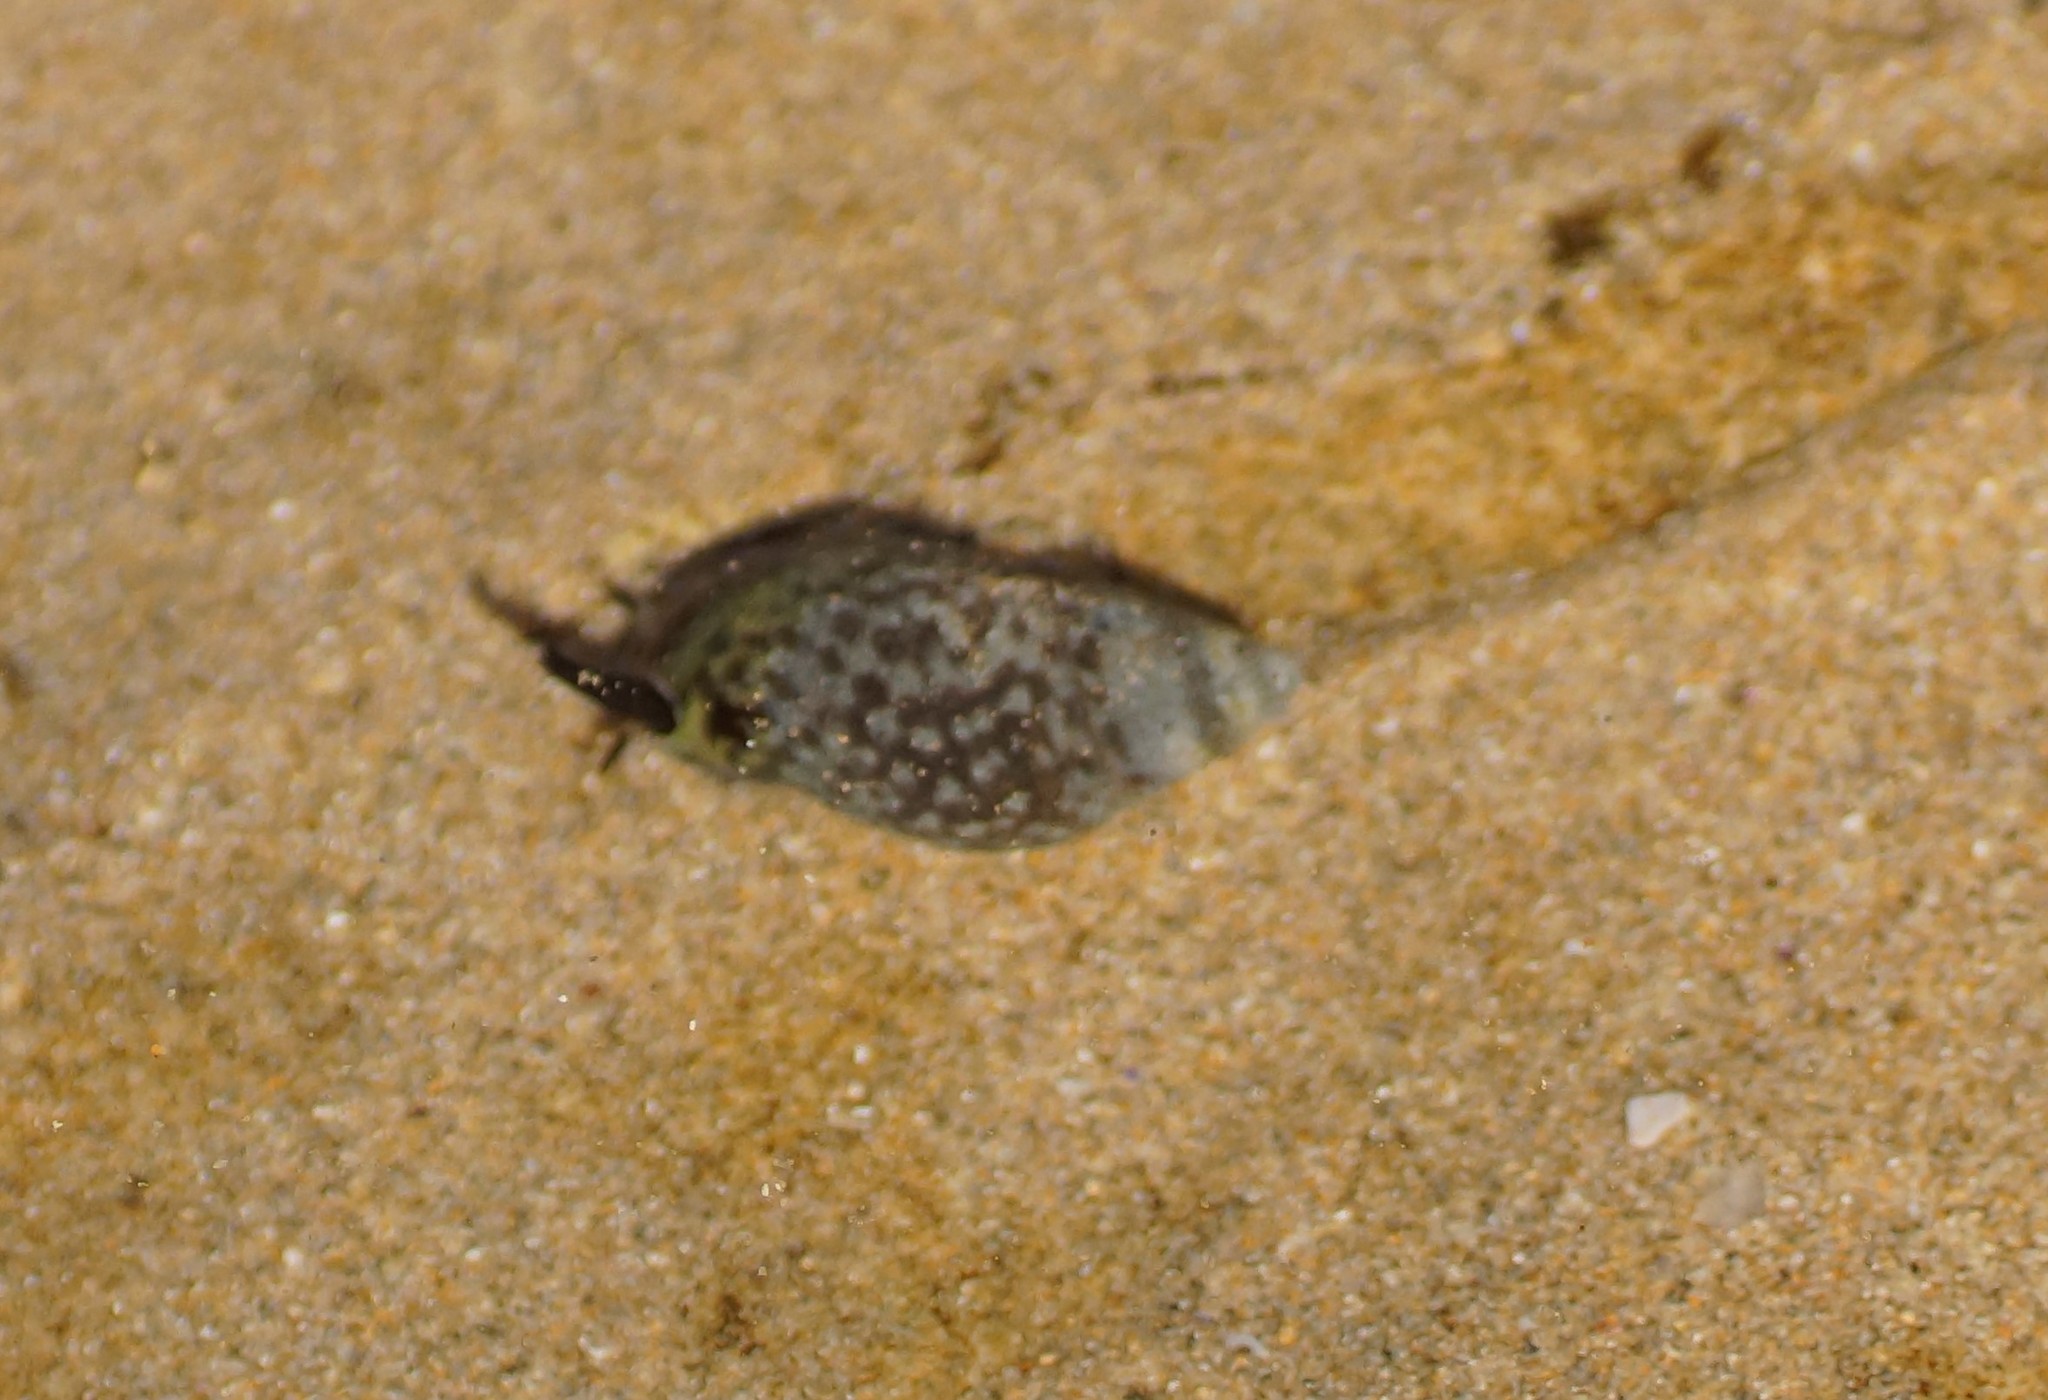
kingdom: Animalia
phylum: Mollusca
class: Gastropoda
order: Neogastropoda
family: Cominellidae
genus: Cominella
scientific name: Cominella lineolata
